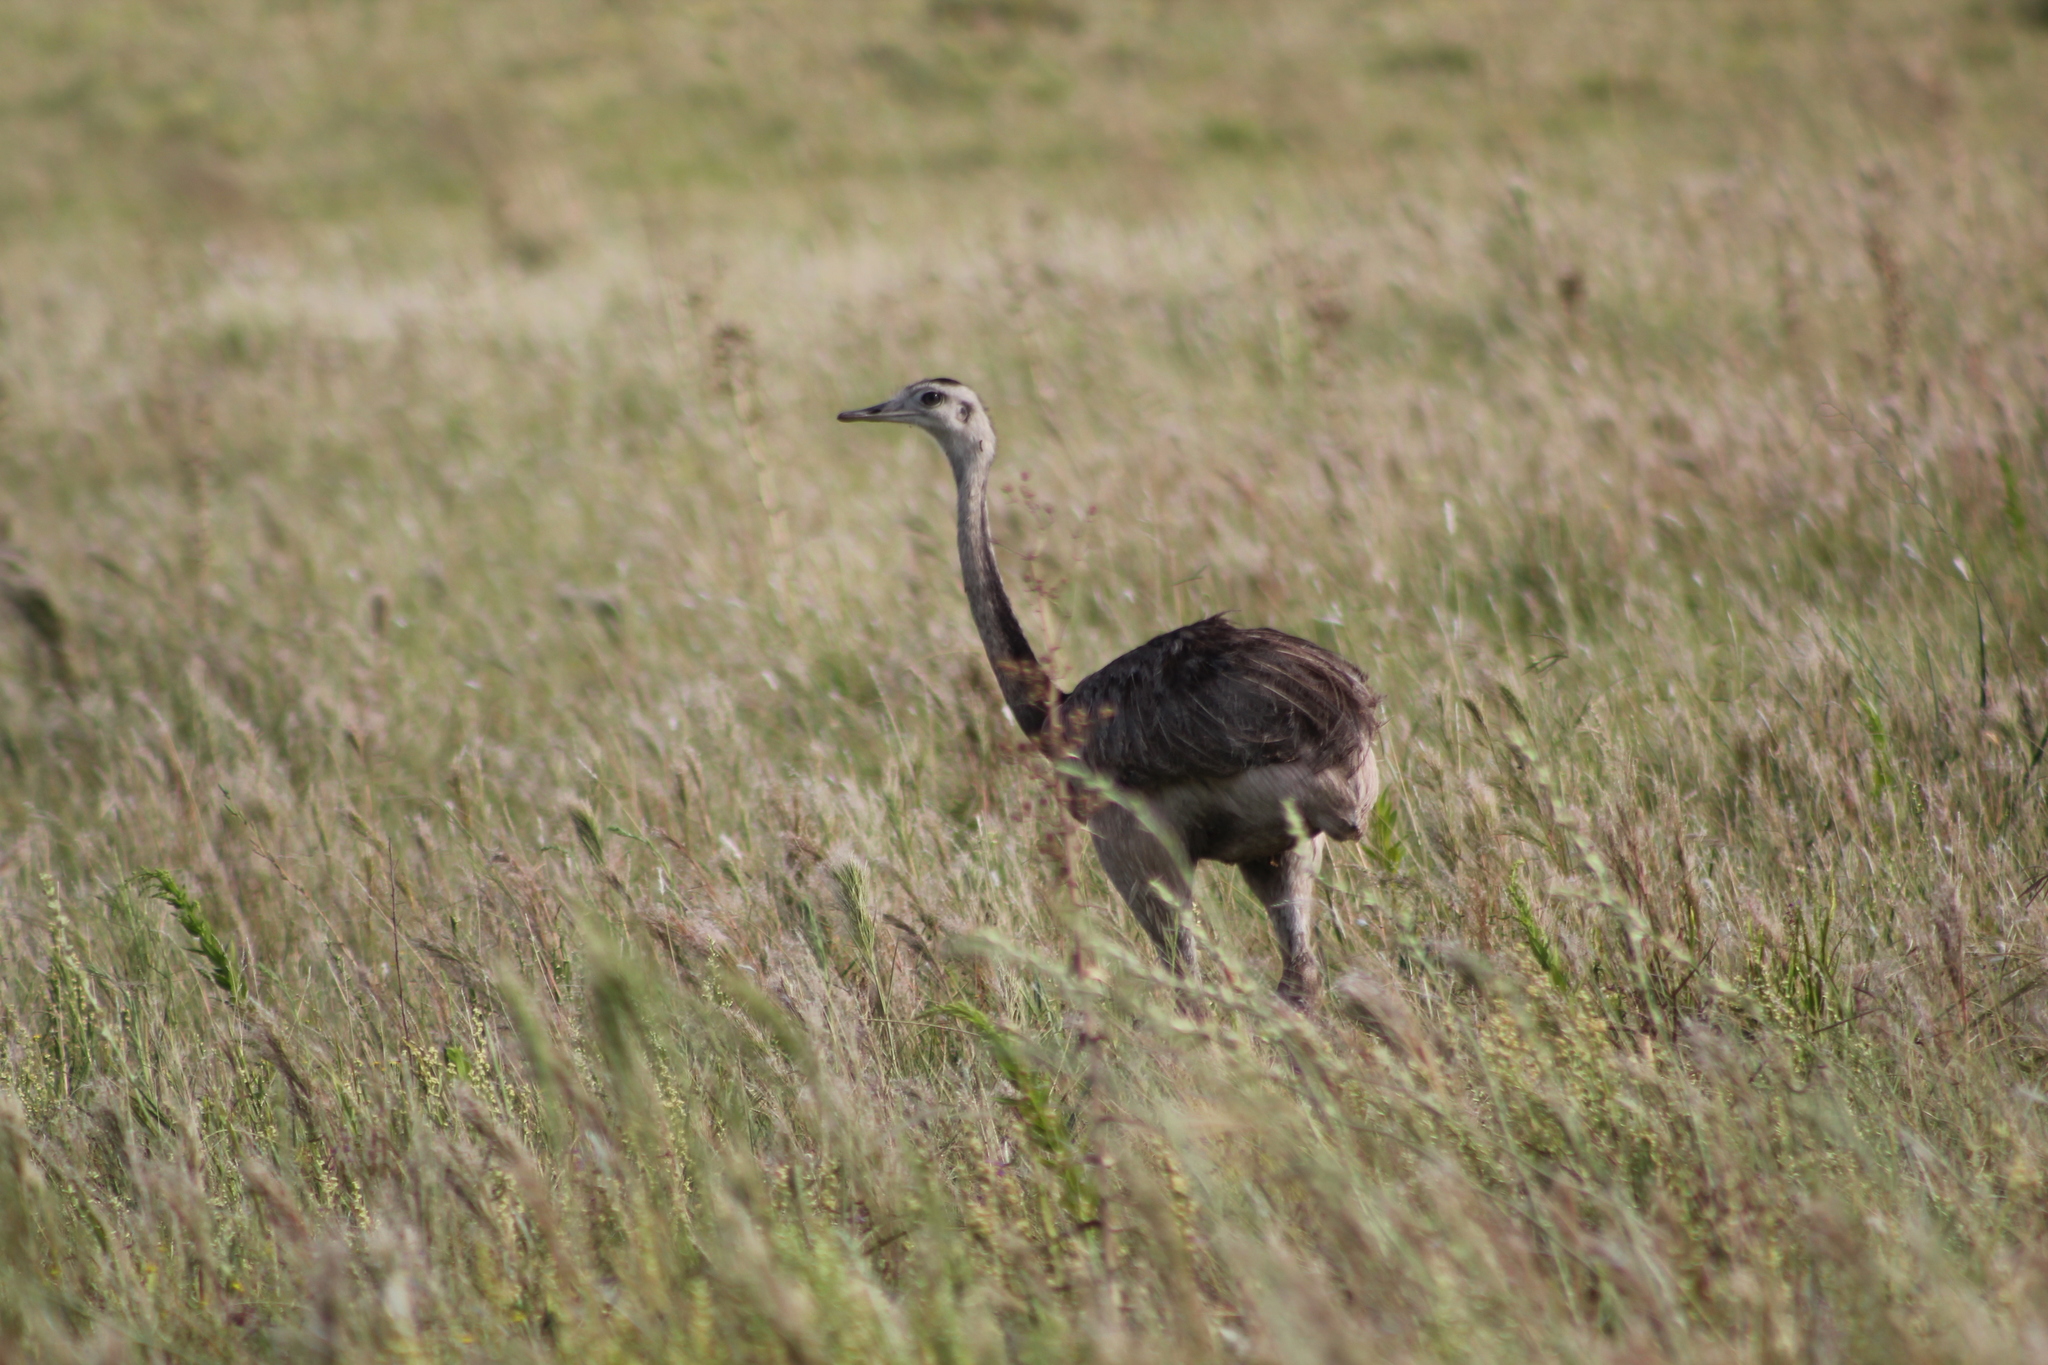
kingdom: Animalia
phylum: Chordata
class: Aves
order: Rheiformes
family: Rheidae
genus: Rhea
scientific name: Rhea americana
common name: Greater rhea
